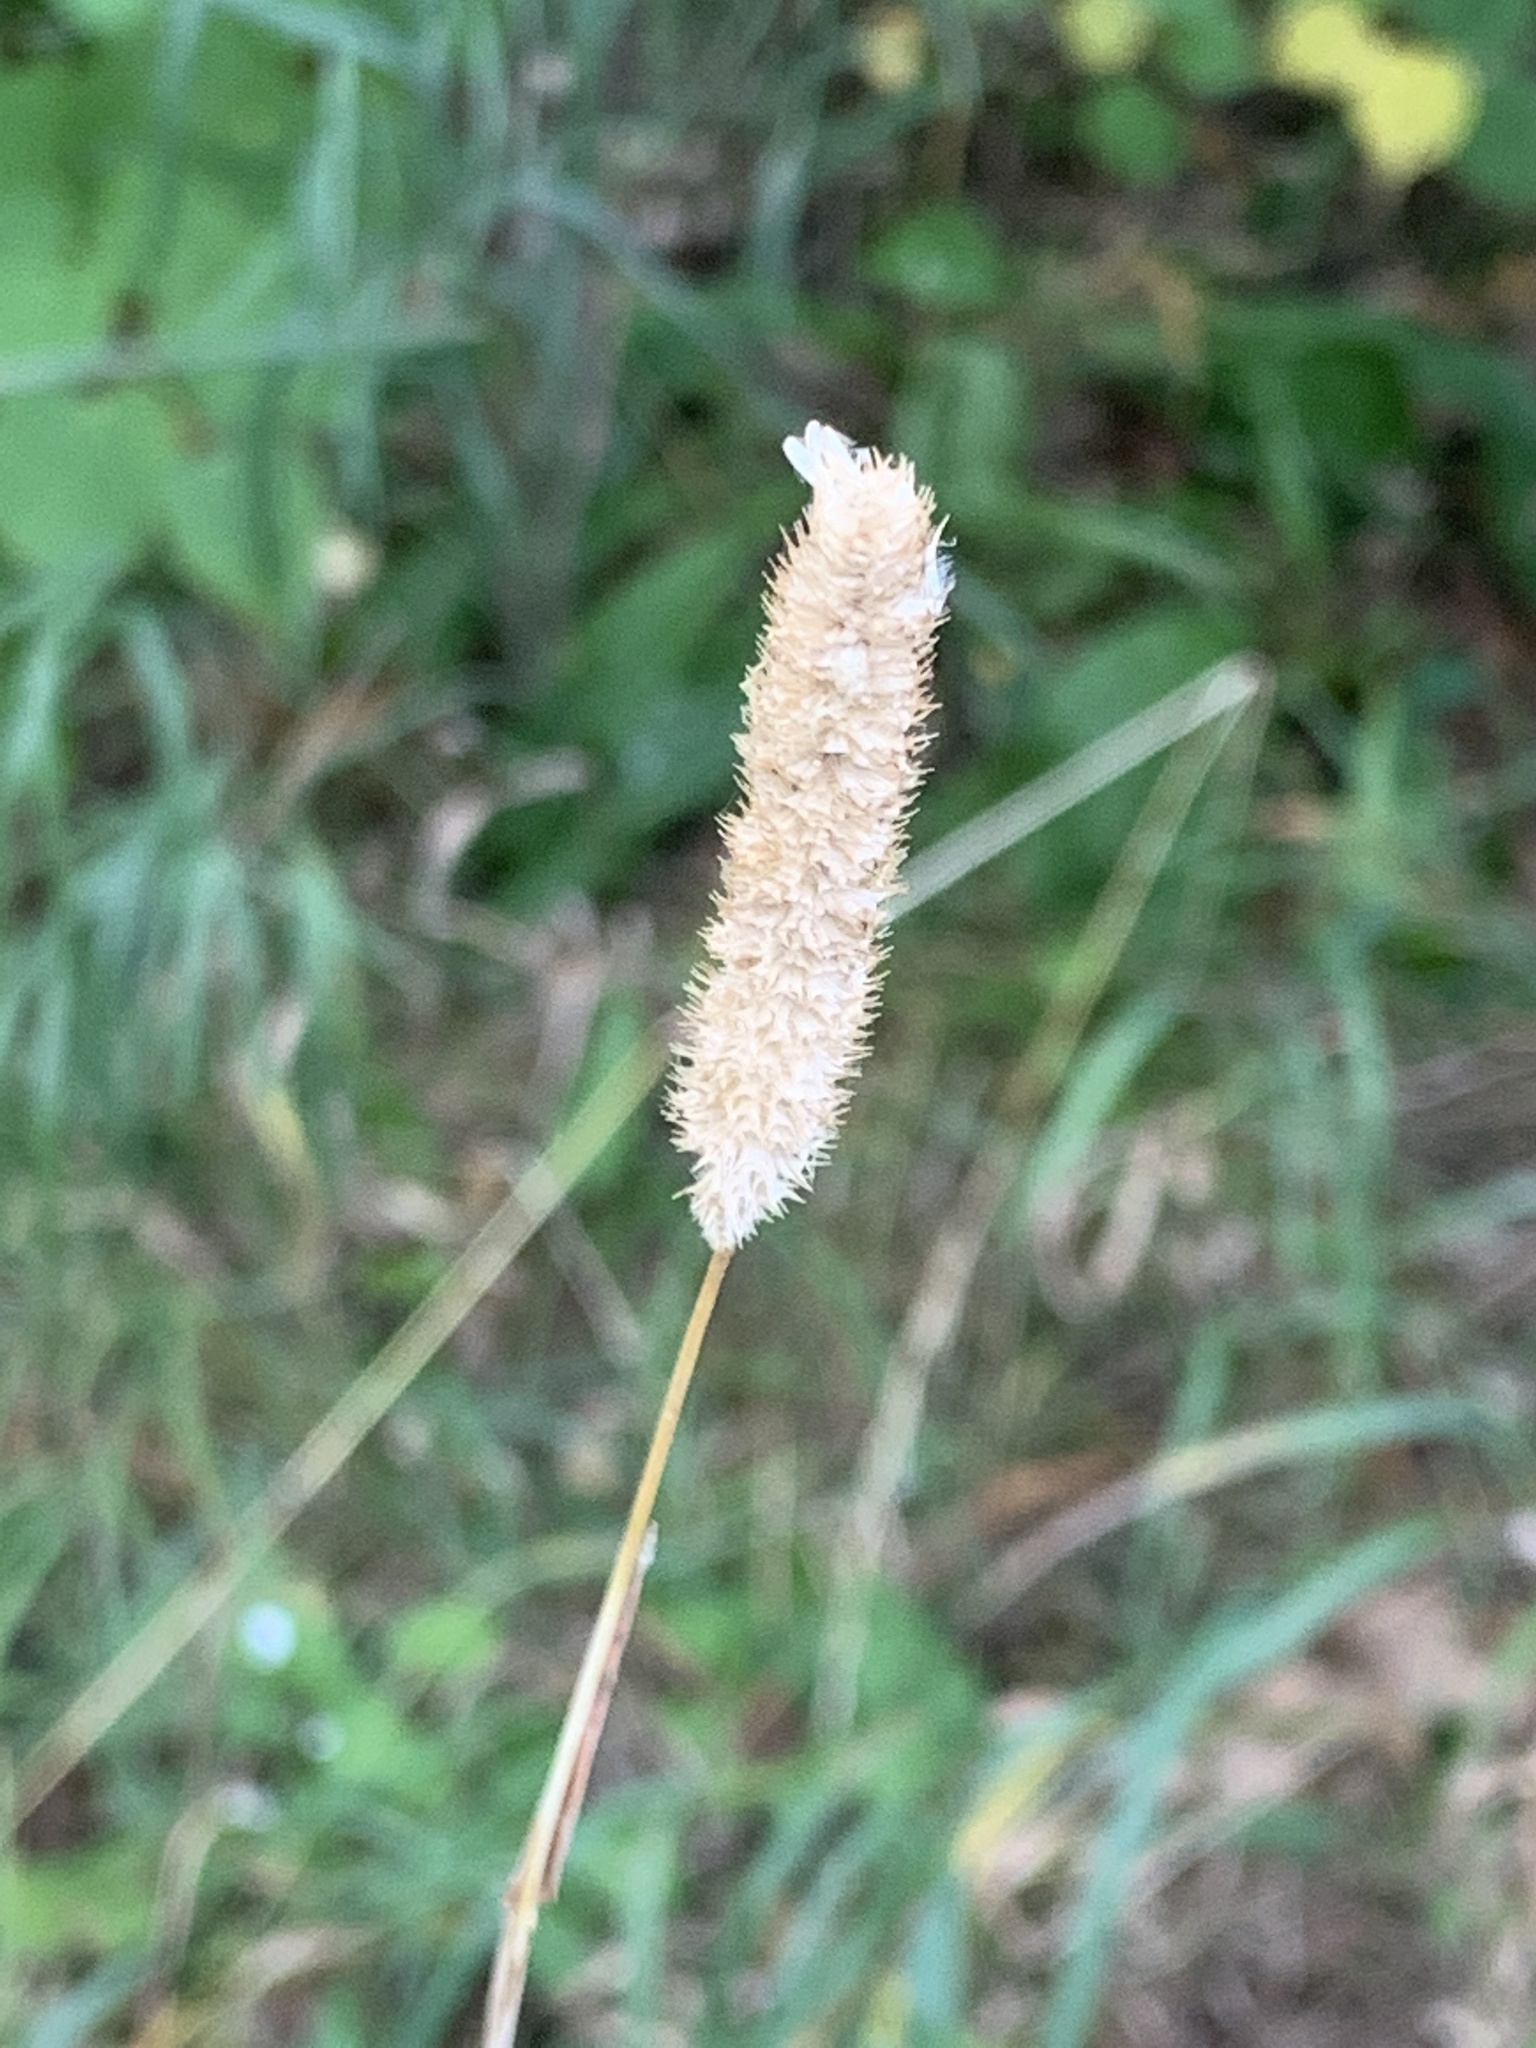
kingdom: Plantae
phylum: Tracheophyta
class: Liliopsida
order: Poales
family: Poaceae
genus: Phleum
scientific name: Phleum pratense
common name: Timothy grass
